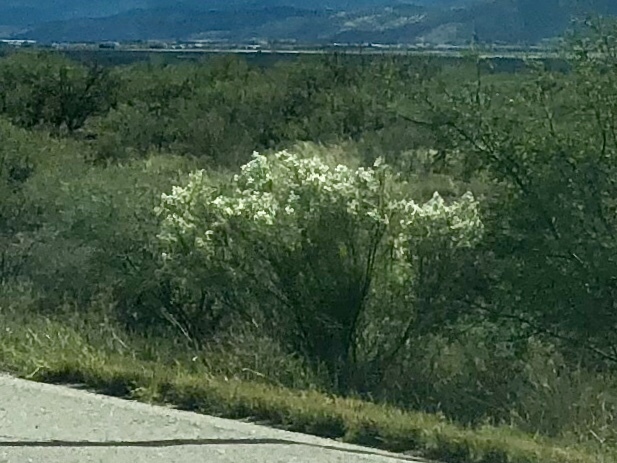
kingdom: Plantae
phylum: Tracheophyta
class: Magnoliopsida
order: Asterales
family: Asteraceae
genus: Baccharis
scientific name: Baccharis sarothroides
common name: Desert-broom
